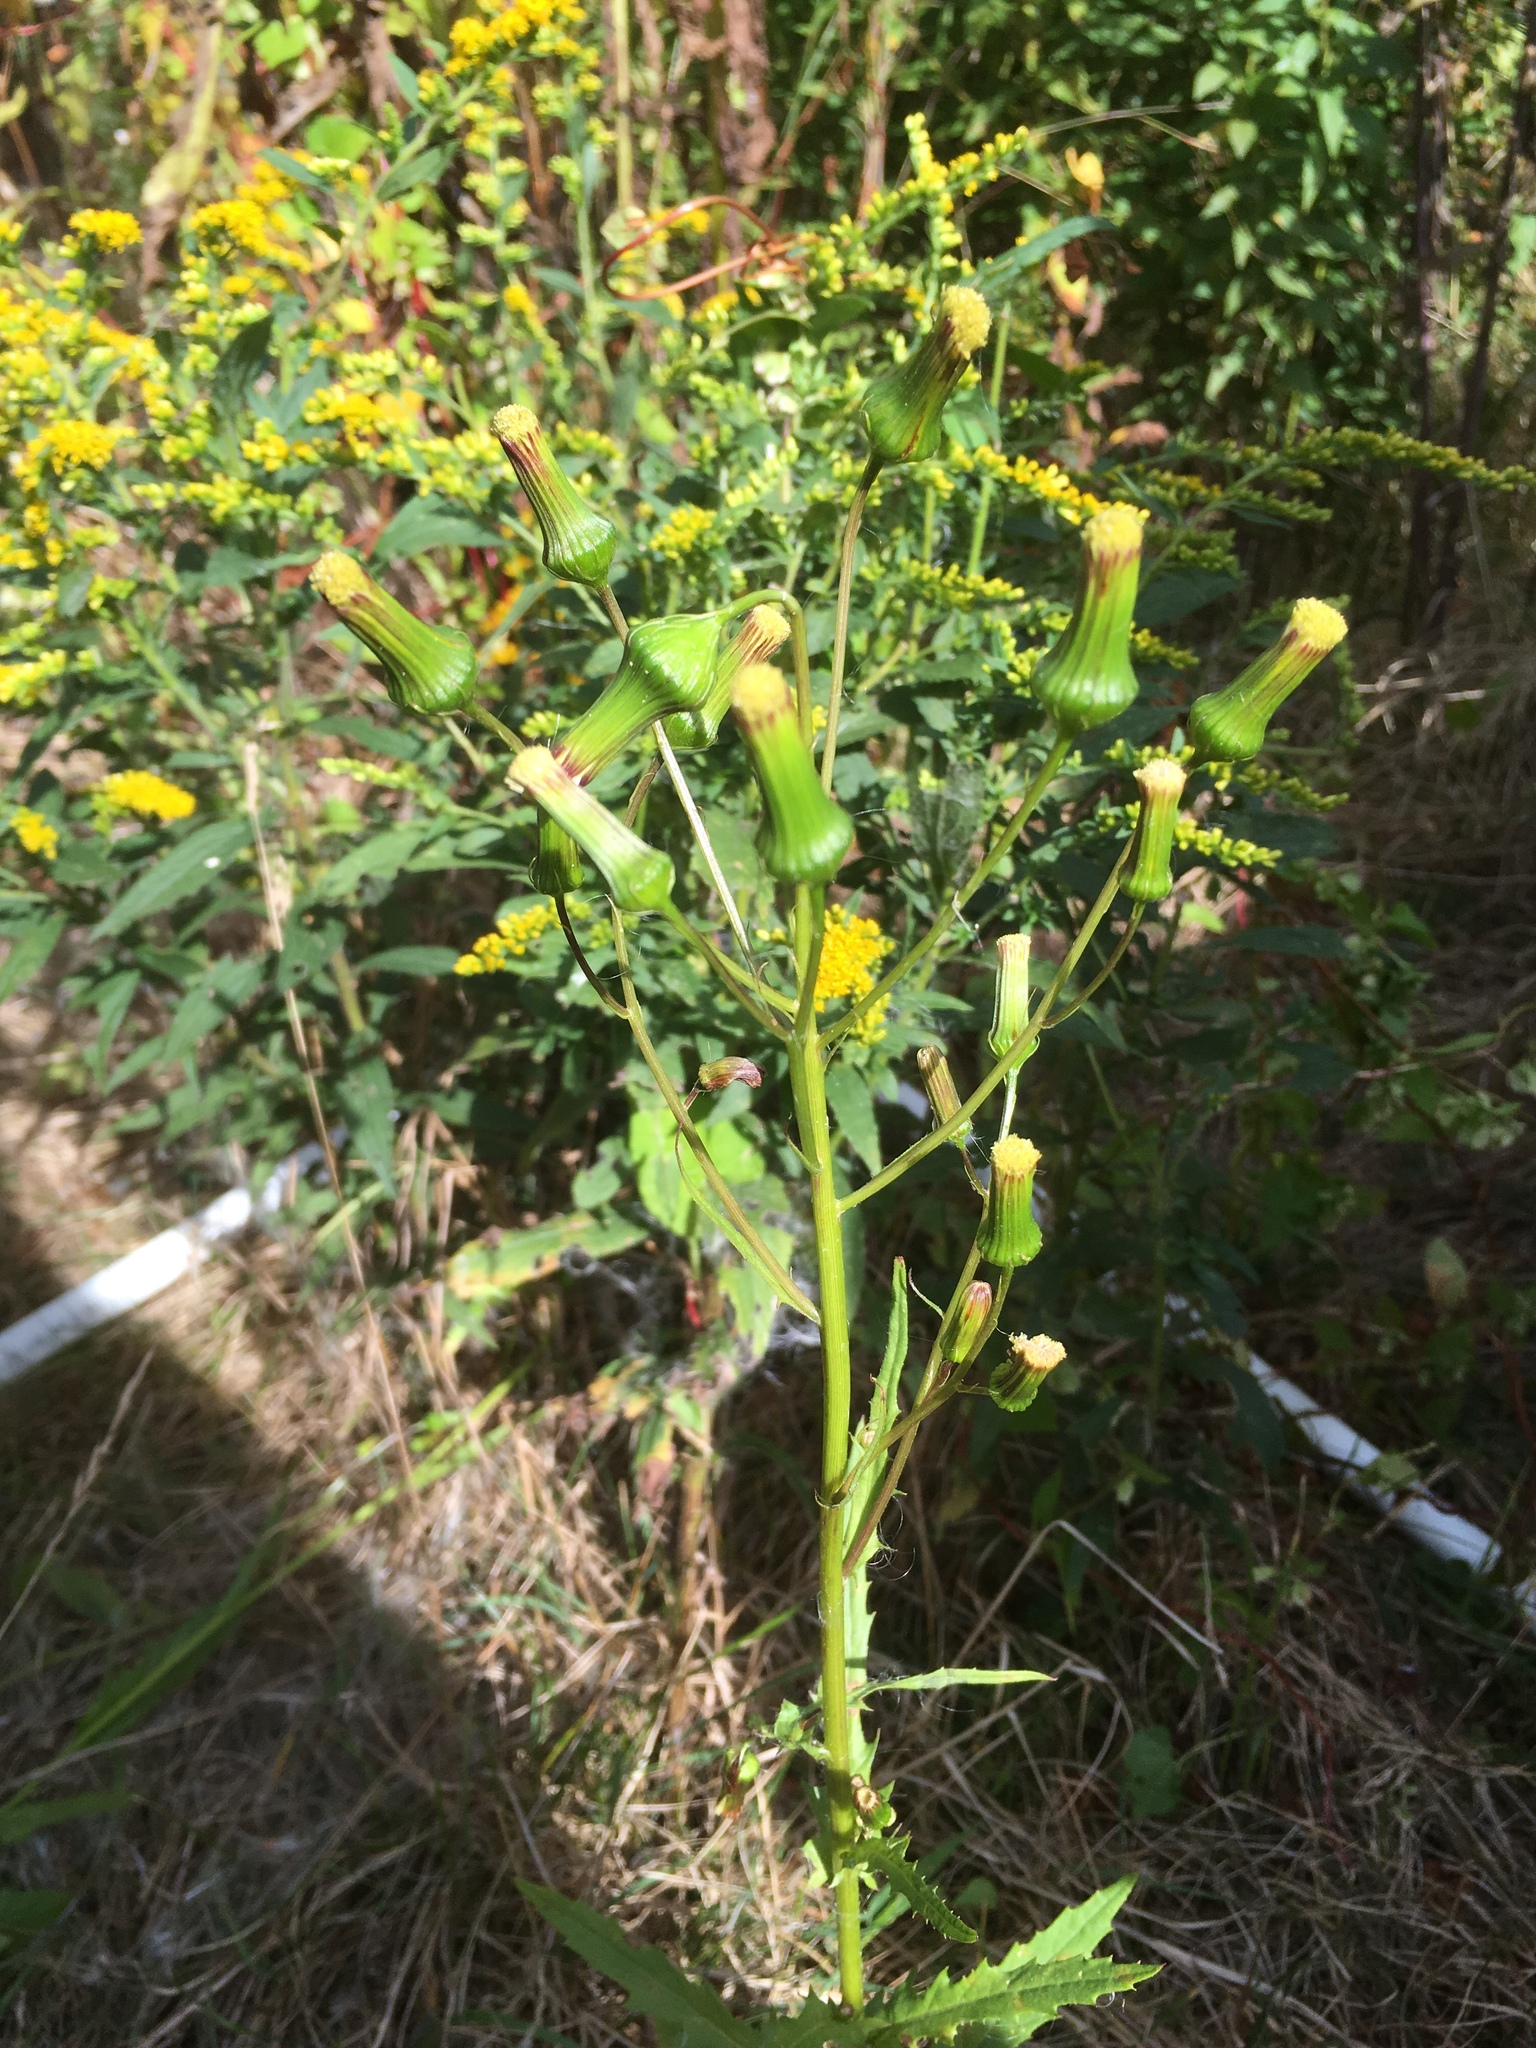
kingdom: Plantae
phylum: Tracheophyta
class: Magnoliopsida
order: Asterales
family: Asteraceae
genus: Erechtites
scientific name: Erechtites hieraciifolius
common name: American burnweed
